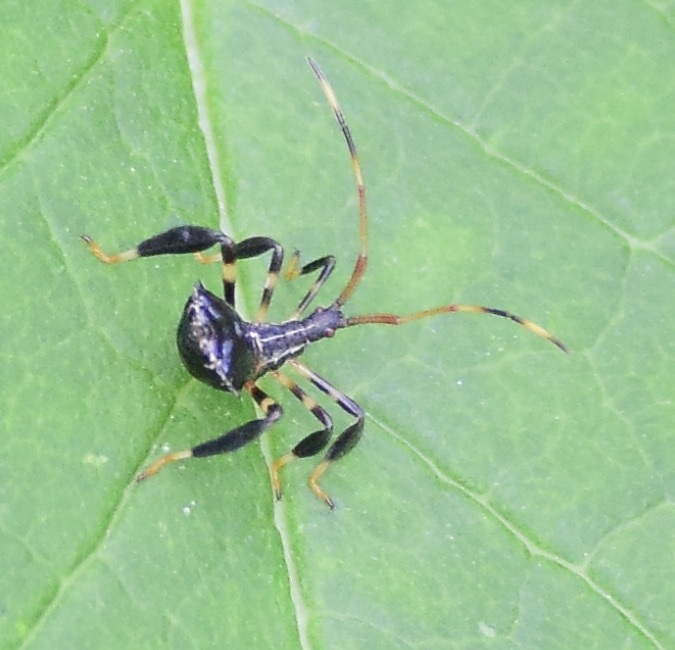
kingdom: Animalia
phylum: Arthropoda
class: Insecta
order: Hemiptera
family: Coreidae
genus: Acanthocephala
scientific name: Acanthocephala terminalis
